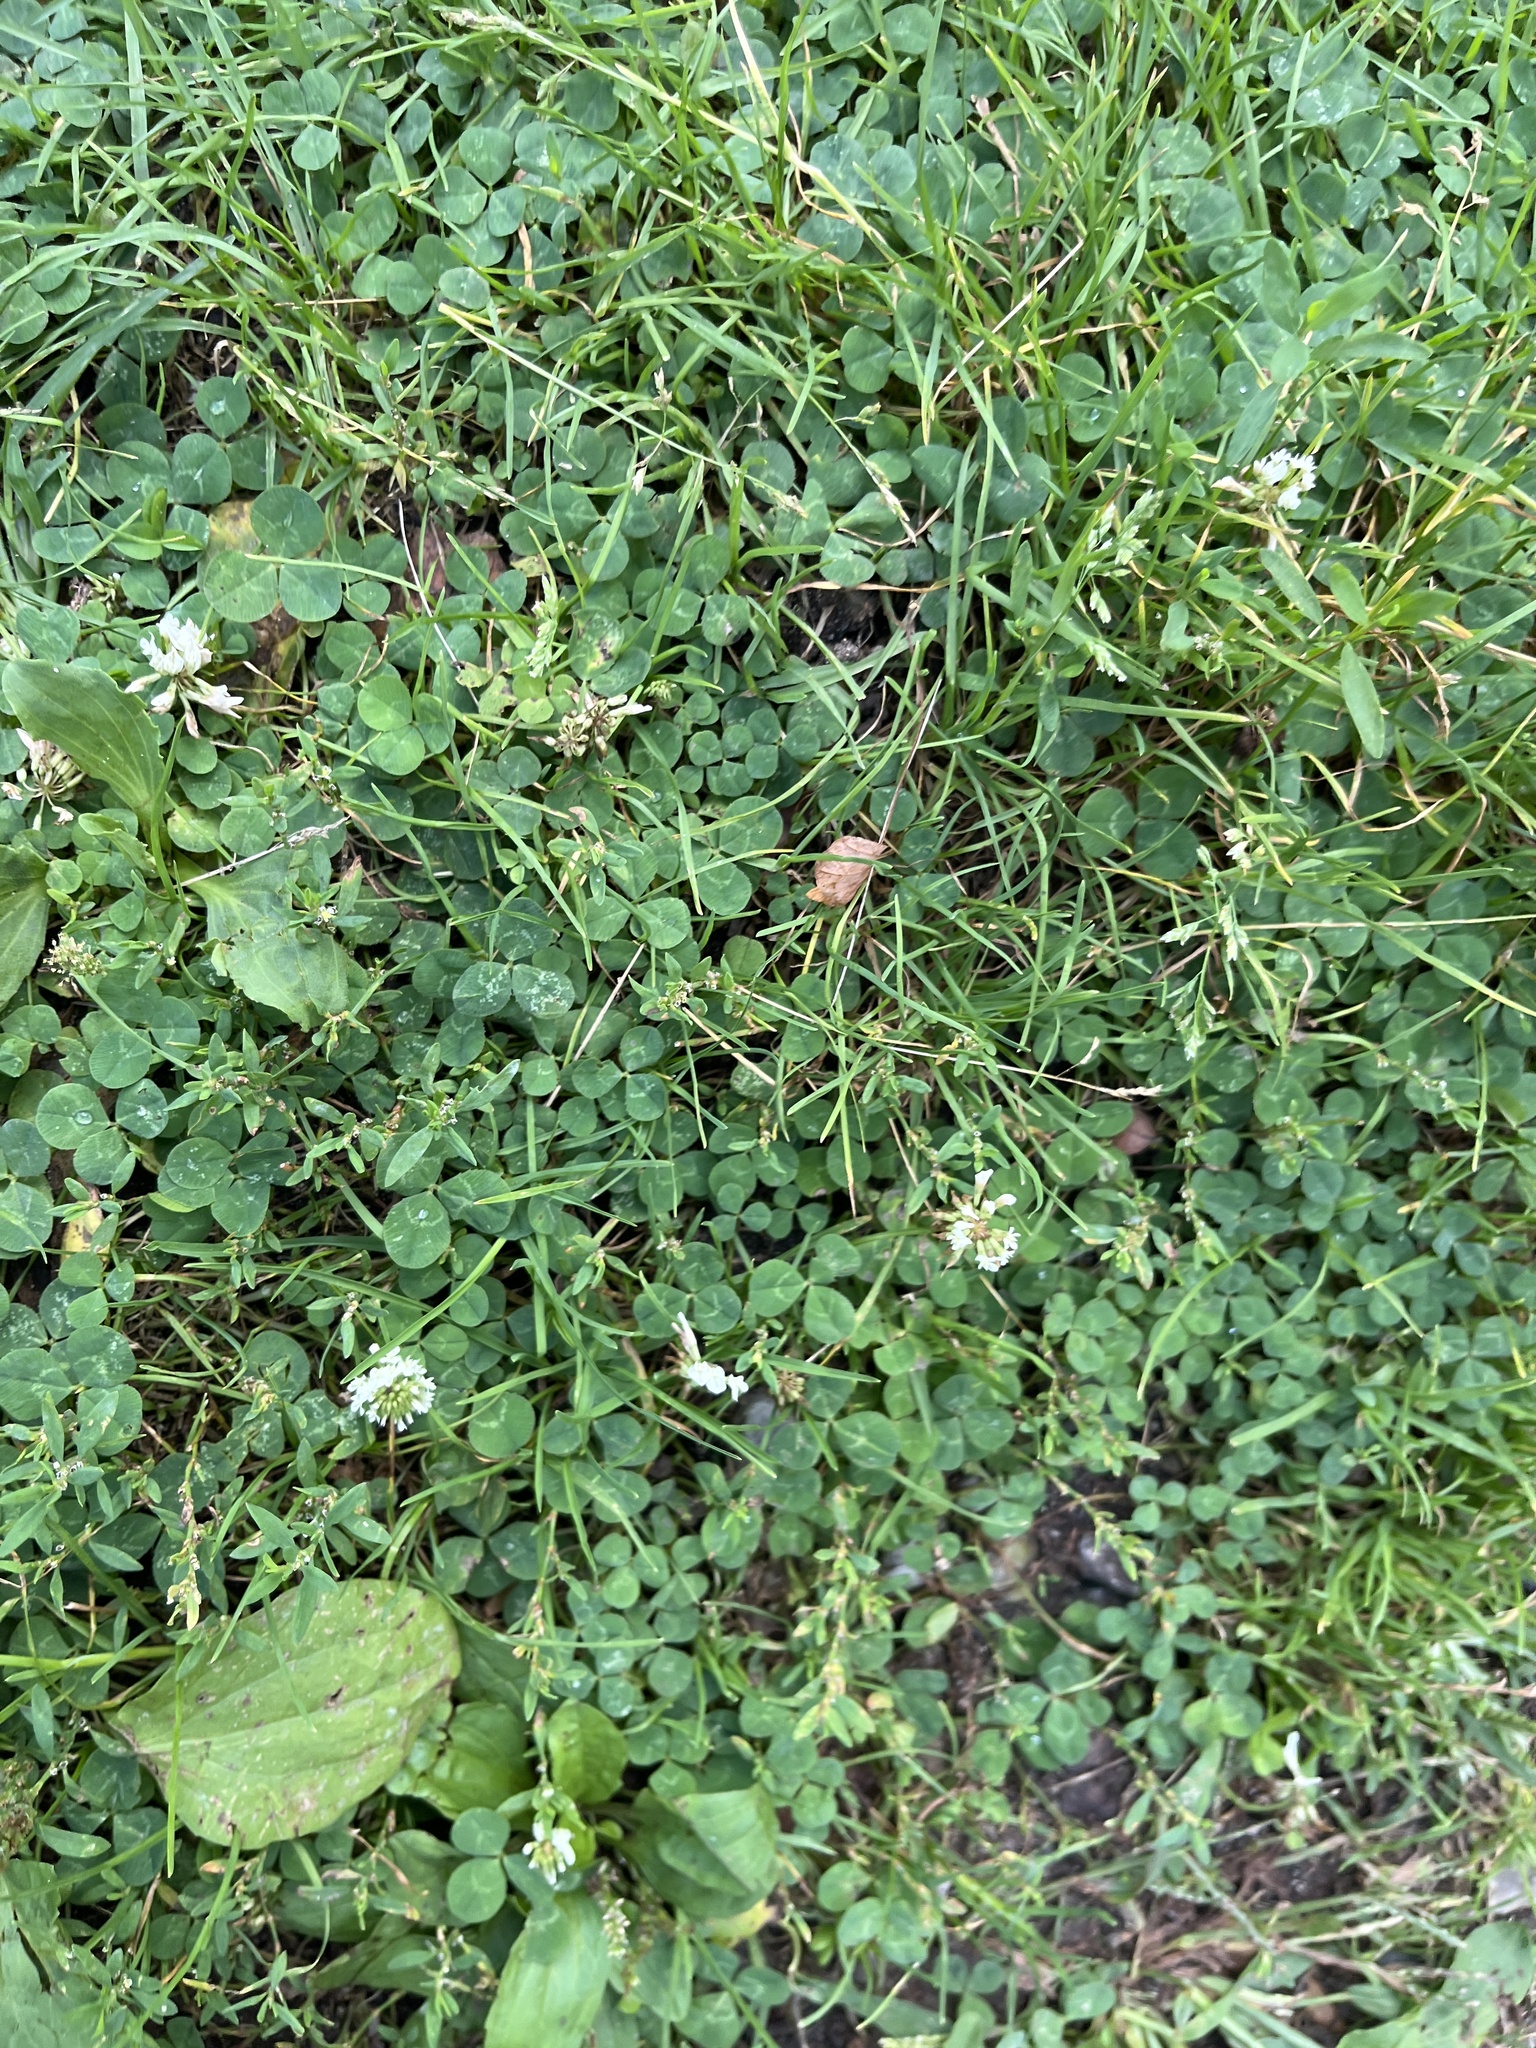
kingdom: Plantae
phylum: Tracheophyta
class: Magnoliopsida
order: Fabales
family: Fabaceae
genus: Trifolium
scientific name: Trifolium repens
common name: White clover
